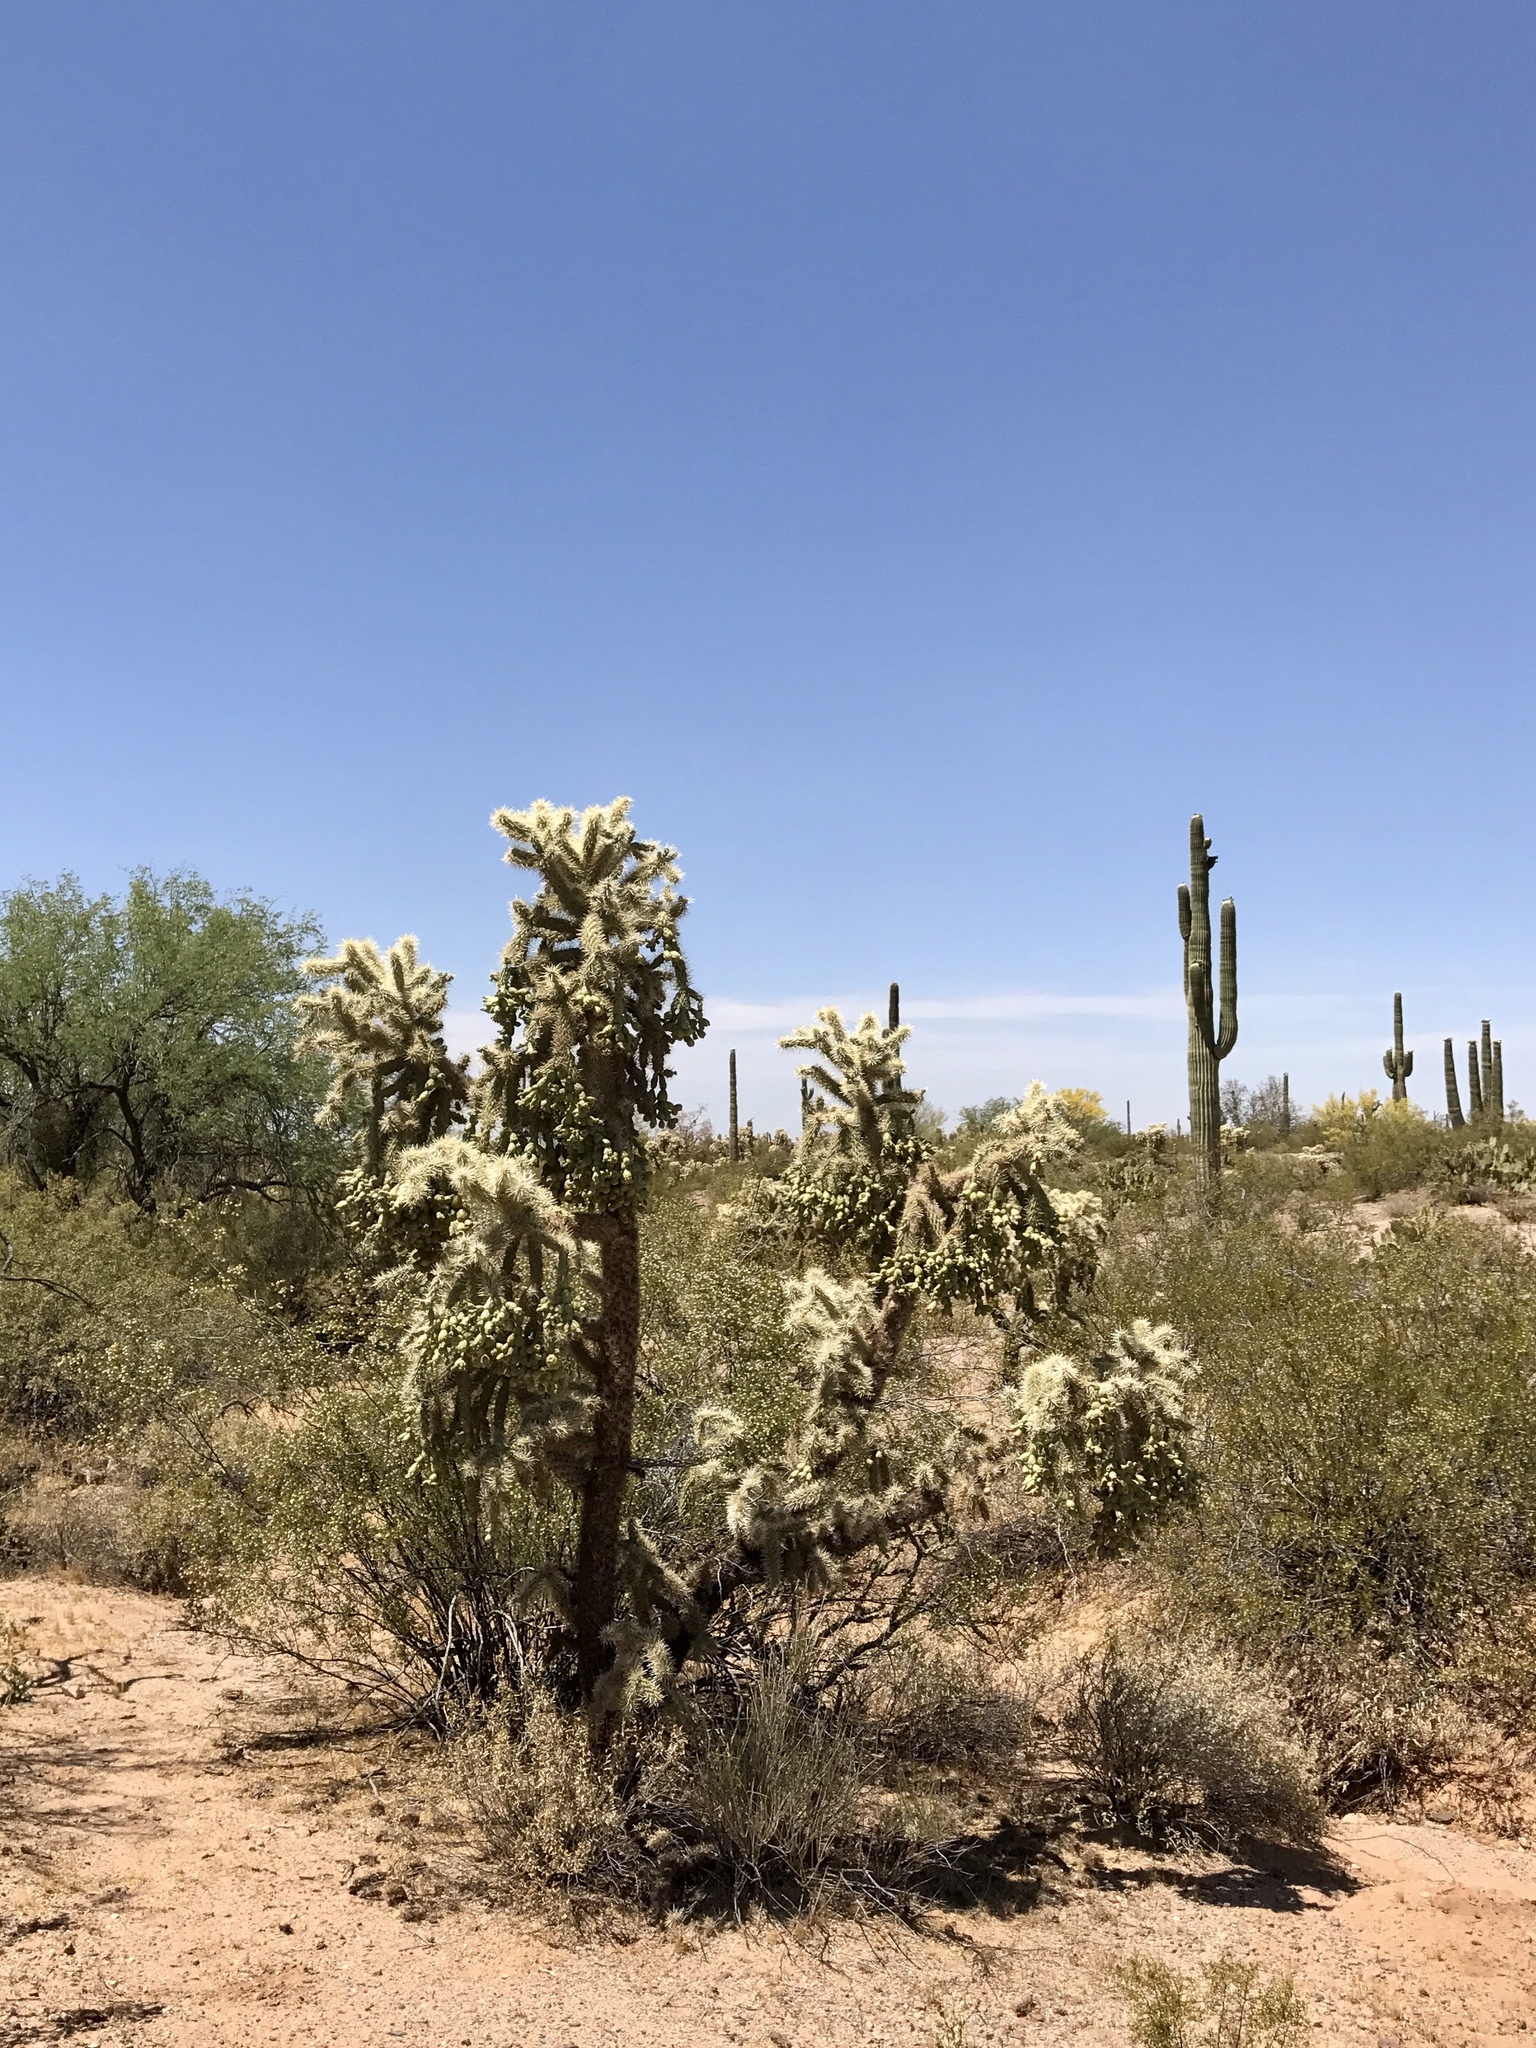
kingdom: Plantae
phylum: Tracheophyta
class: Magnoliopsida
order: Caryophyllales
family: Cactaceae
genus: Cylindropuntia
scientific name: Cylindropuntia fulgida
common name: Jumping cholla
